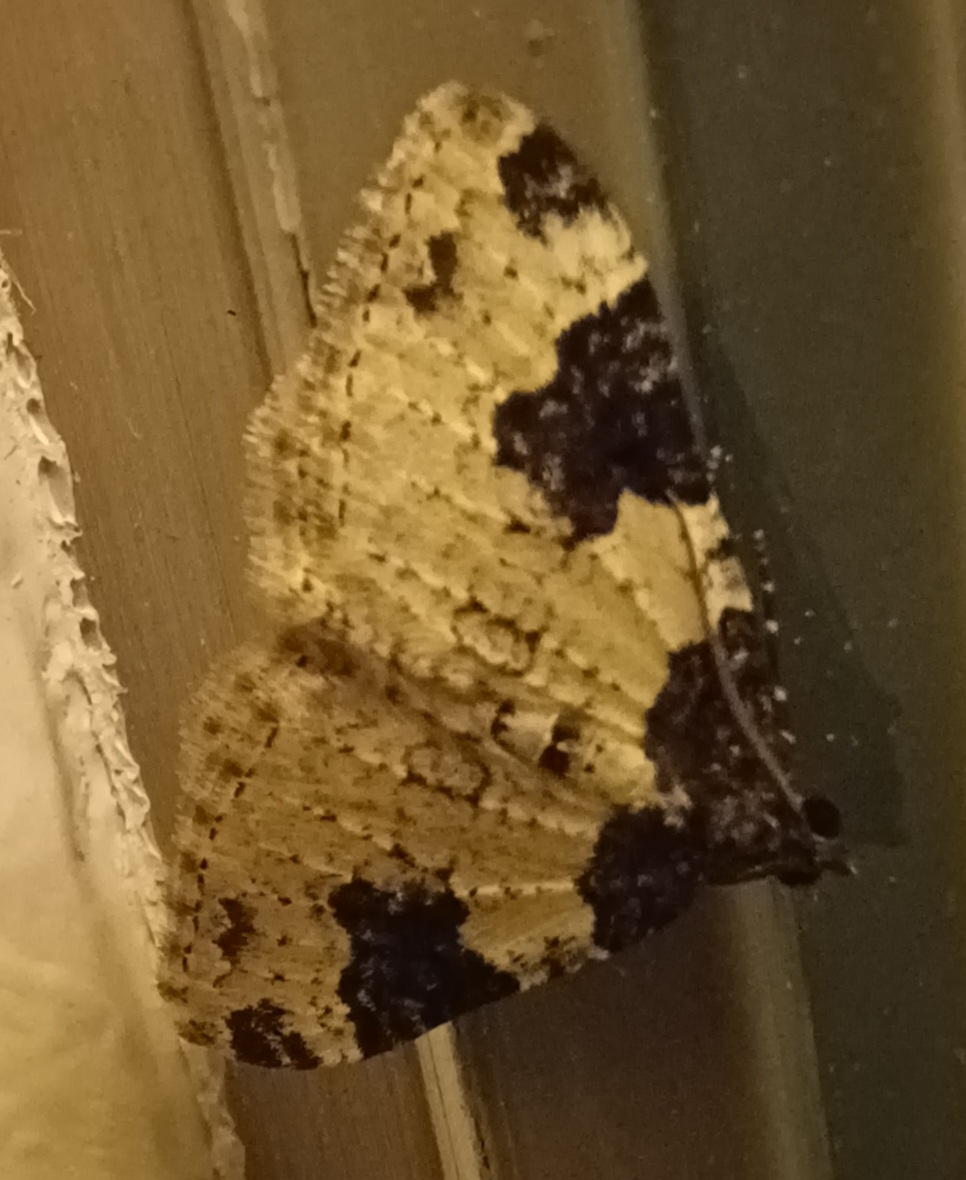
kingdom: Animalia
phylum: Arthropoda
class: Insecta
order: Lepidoptera
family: Geometridae
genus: Xanthorhoe
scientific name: Xanthorhoe fluctuata
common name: Garden carpet
